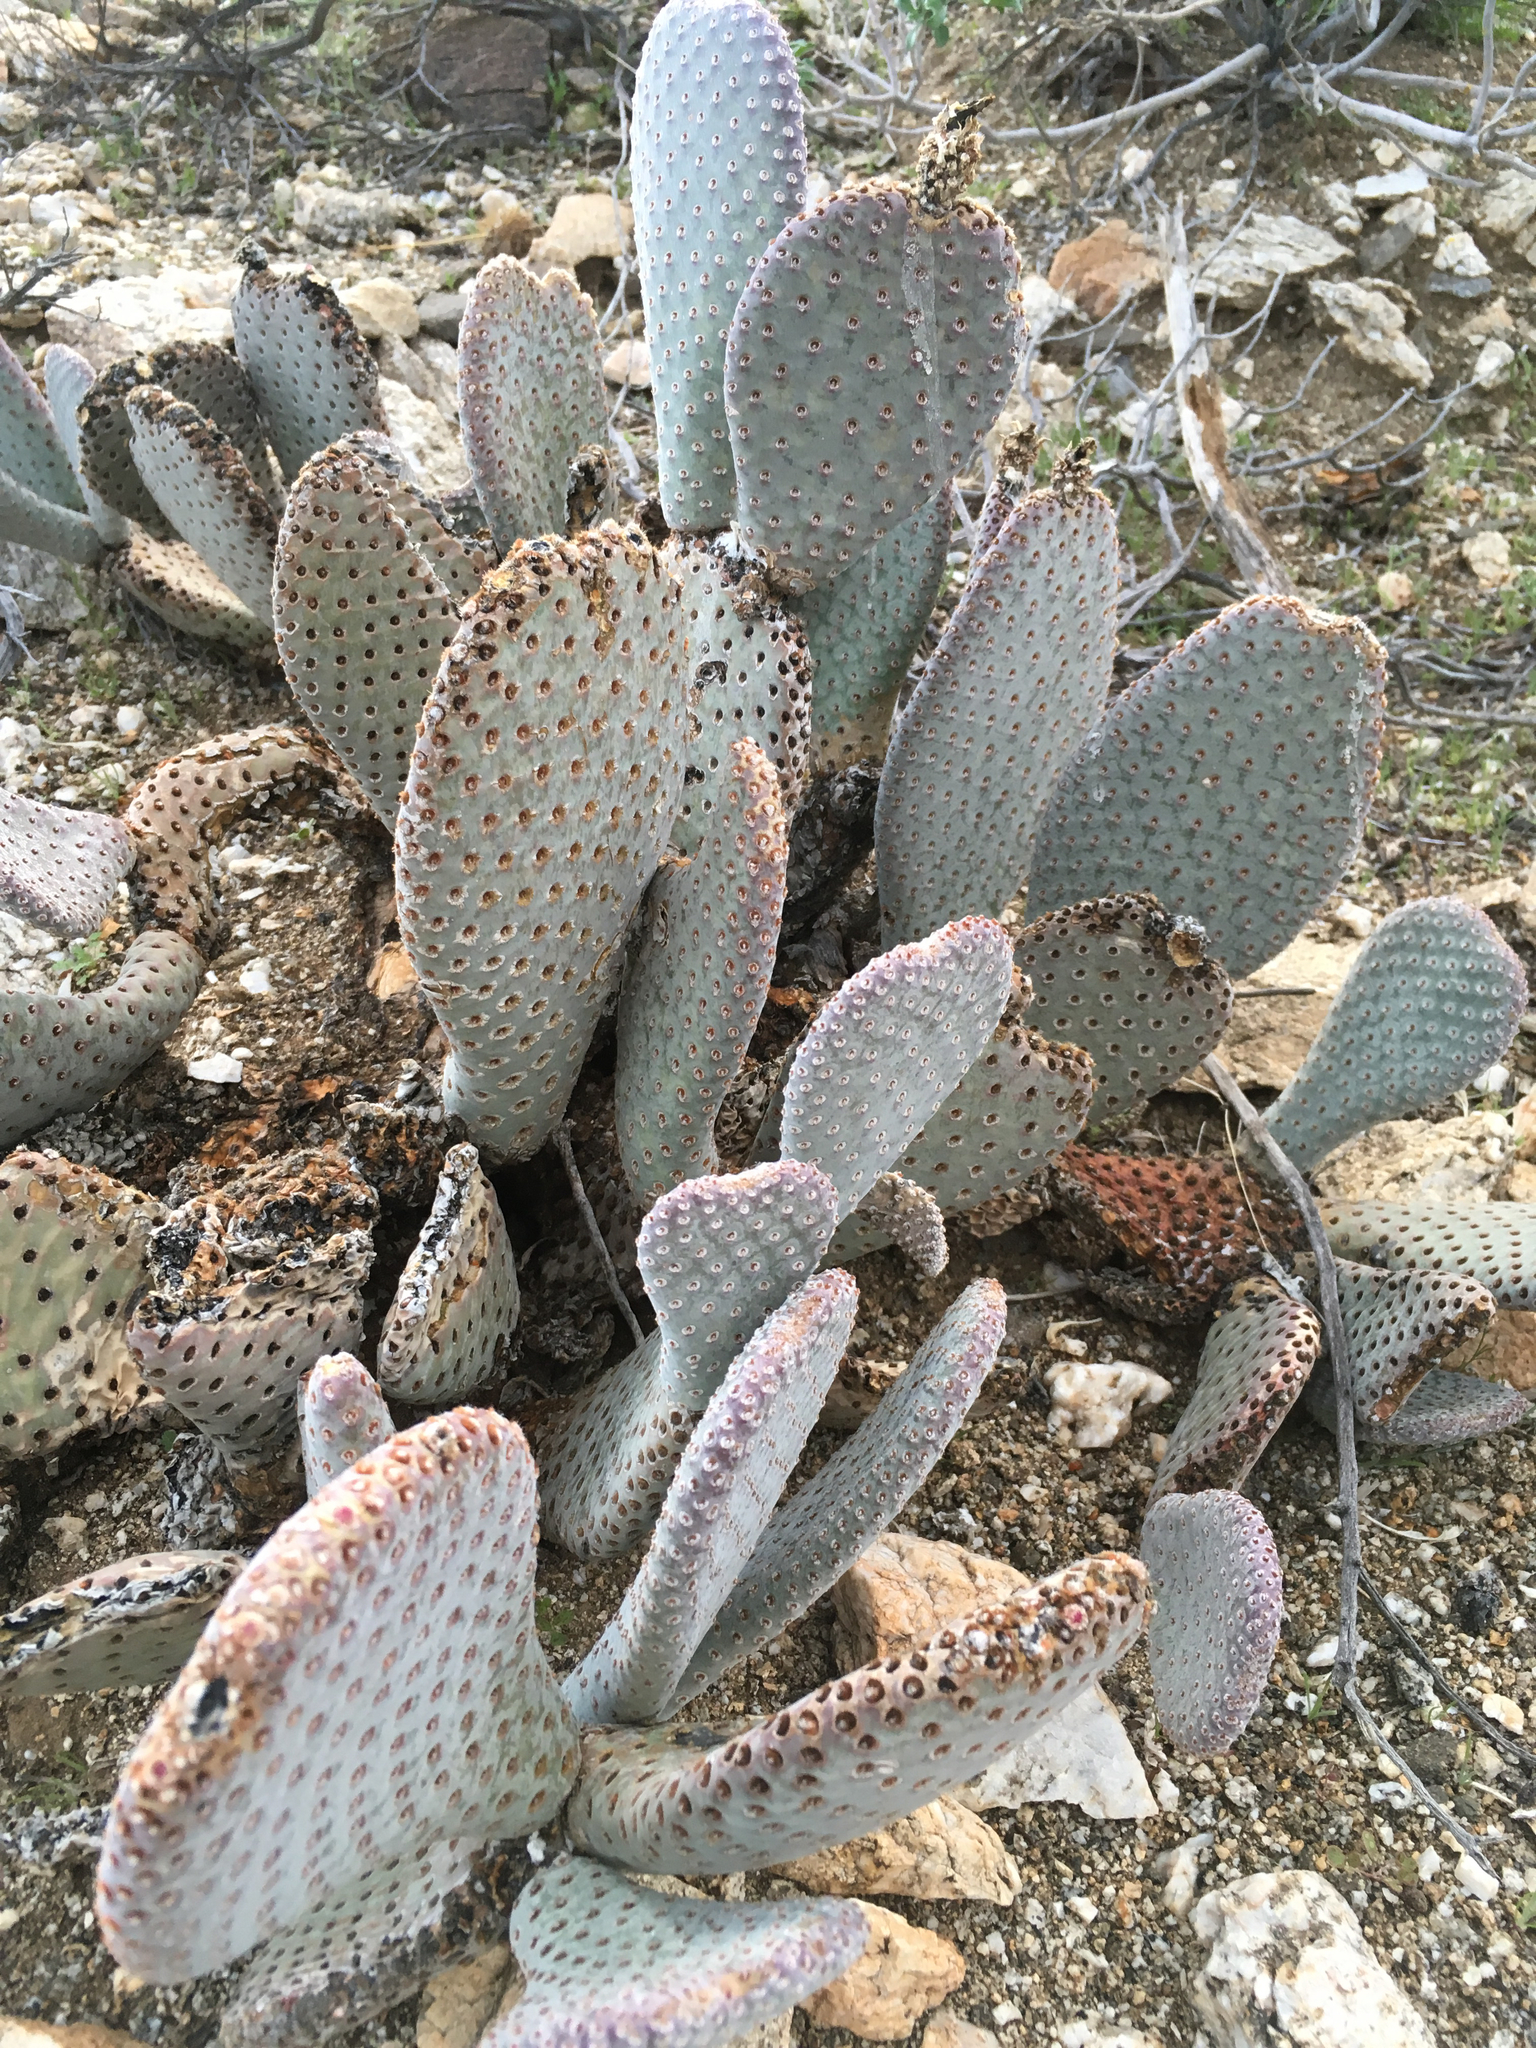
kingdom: Plantae
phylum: Tracheophyta
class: Magnoliopsida
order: Caryophyllales
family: Cactaceae
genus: Opuntia
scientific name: Opuntia basilaris
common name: Beavertail prickly-pear
